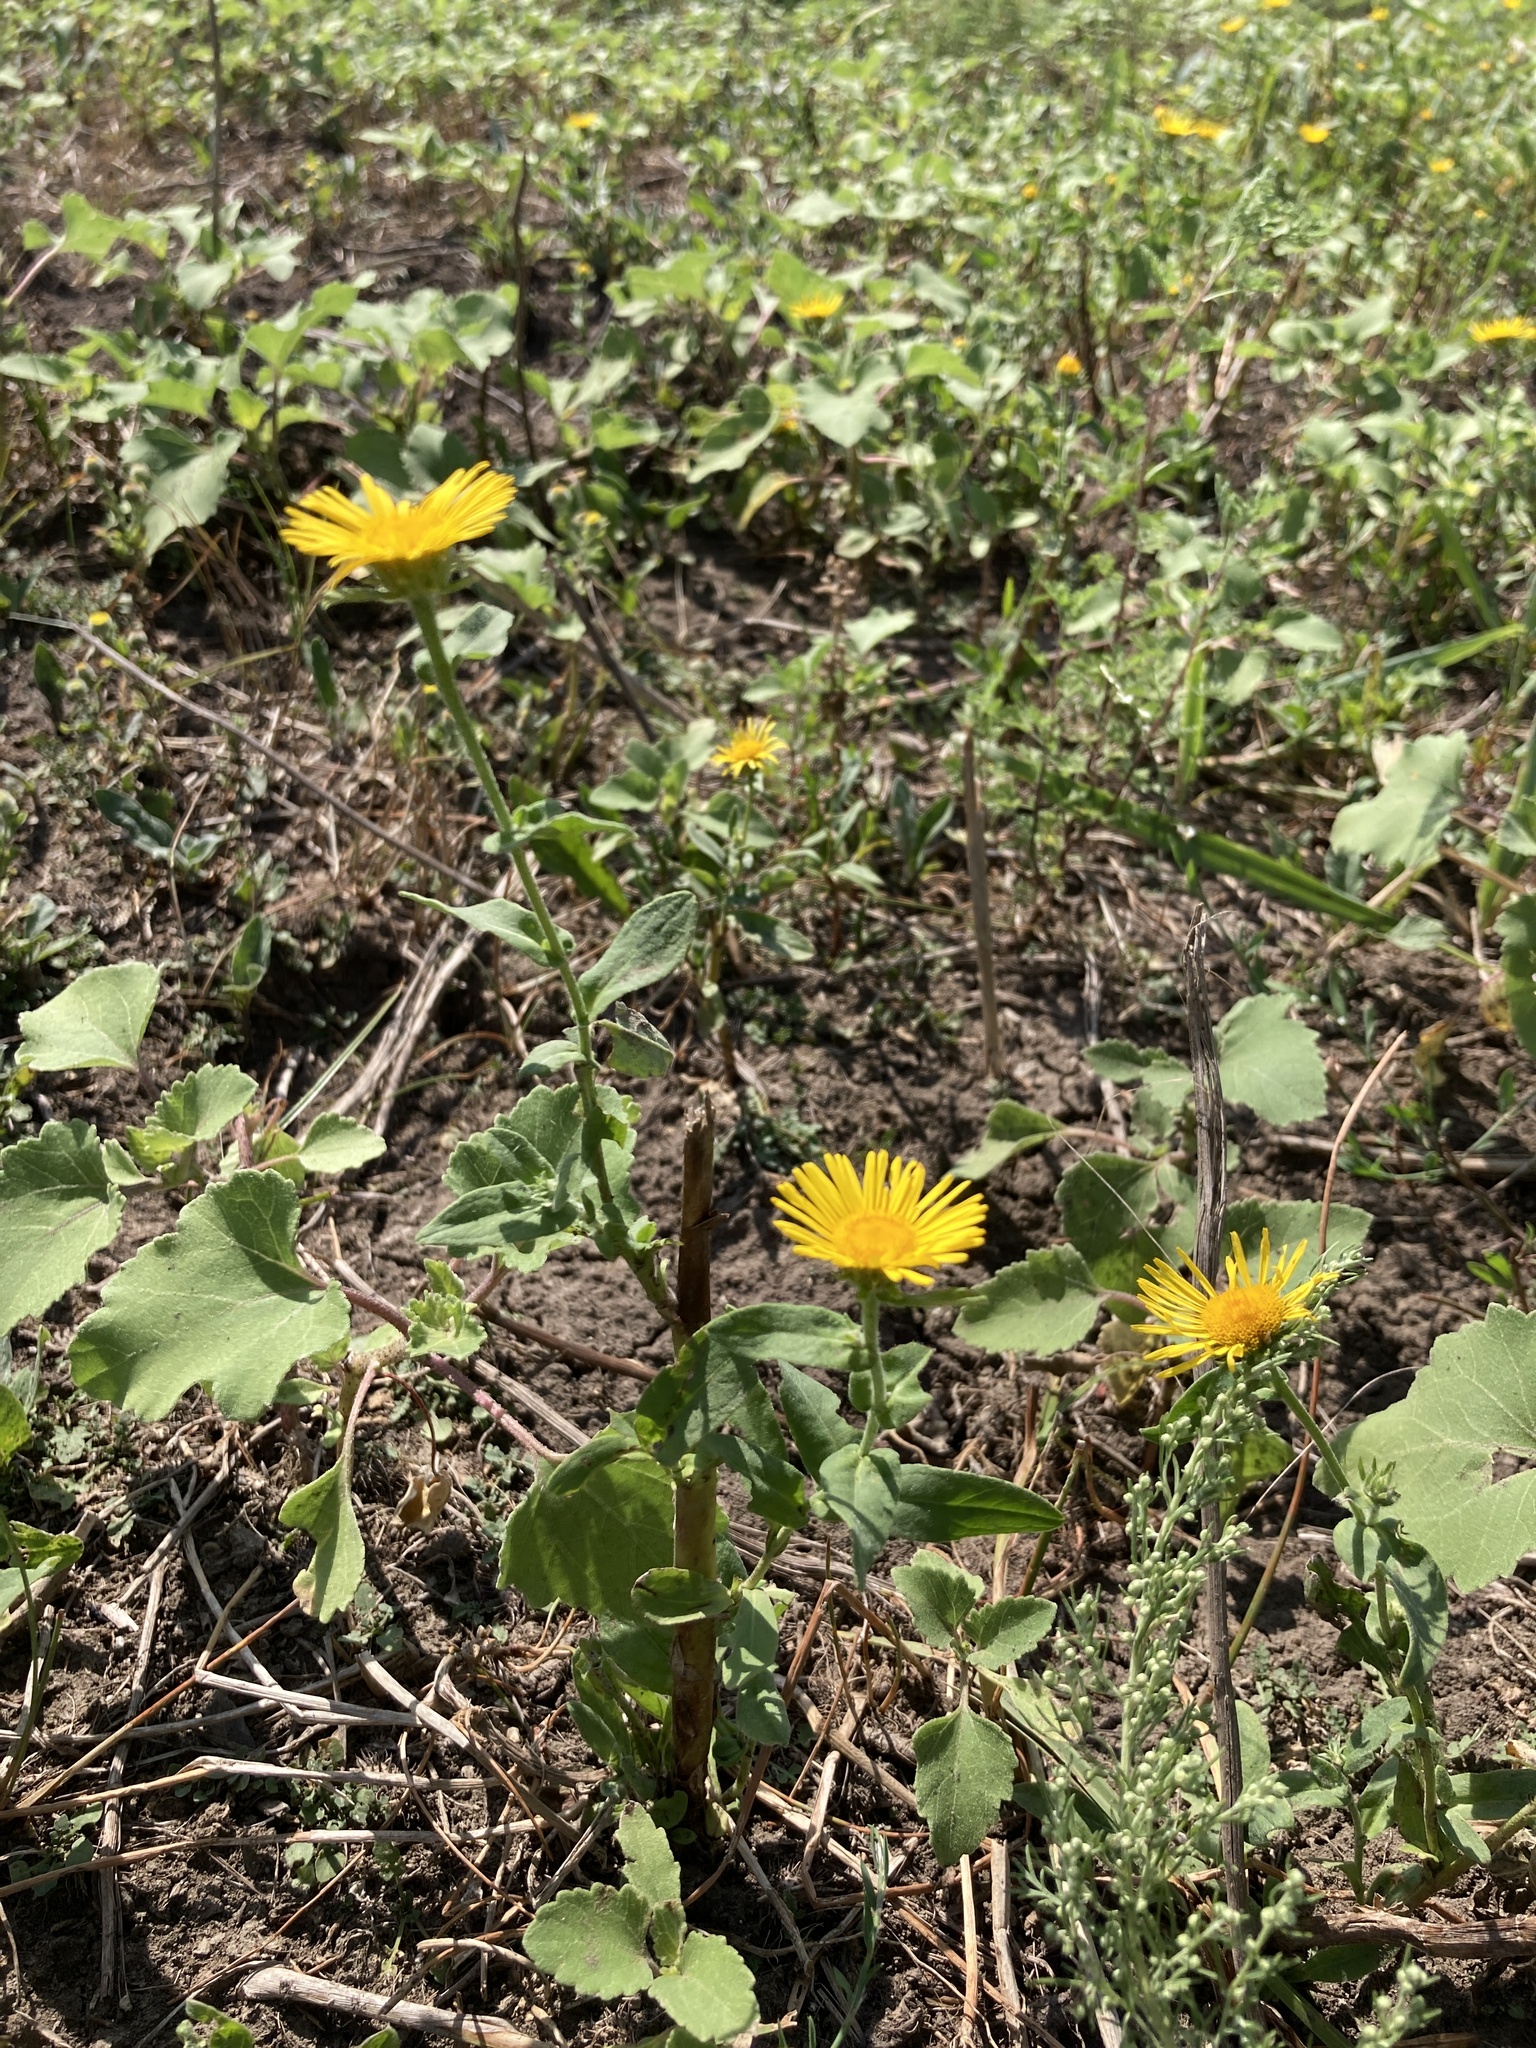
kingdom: Plantae
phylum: Tracheophyta
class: Magnoliopsida
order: Asterales
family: Asteraceae
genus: Pentanema
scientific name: Pentanema britannicum
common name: British elecampane
